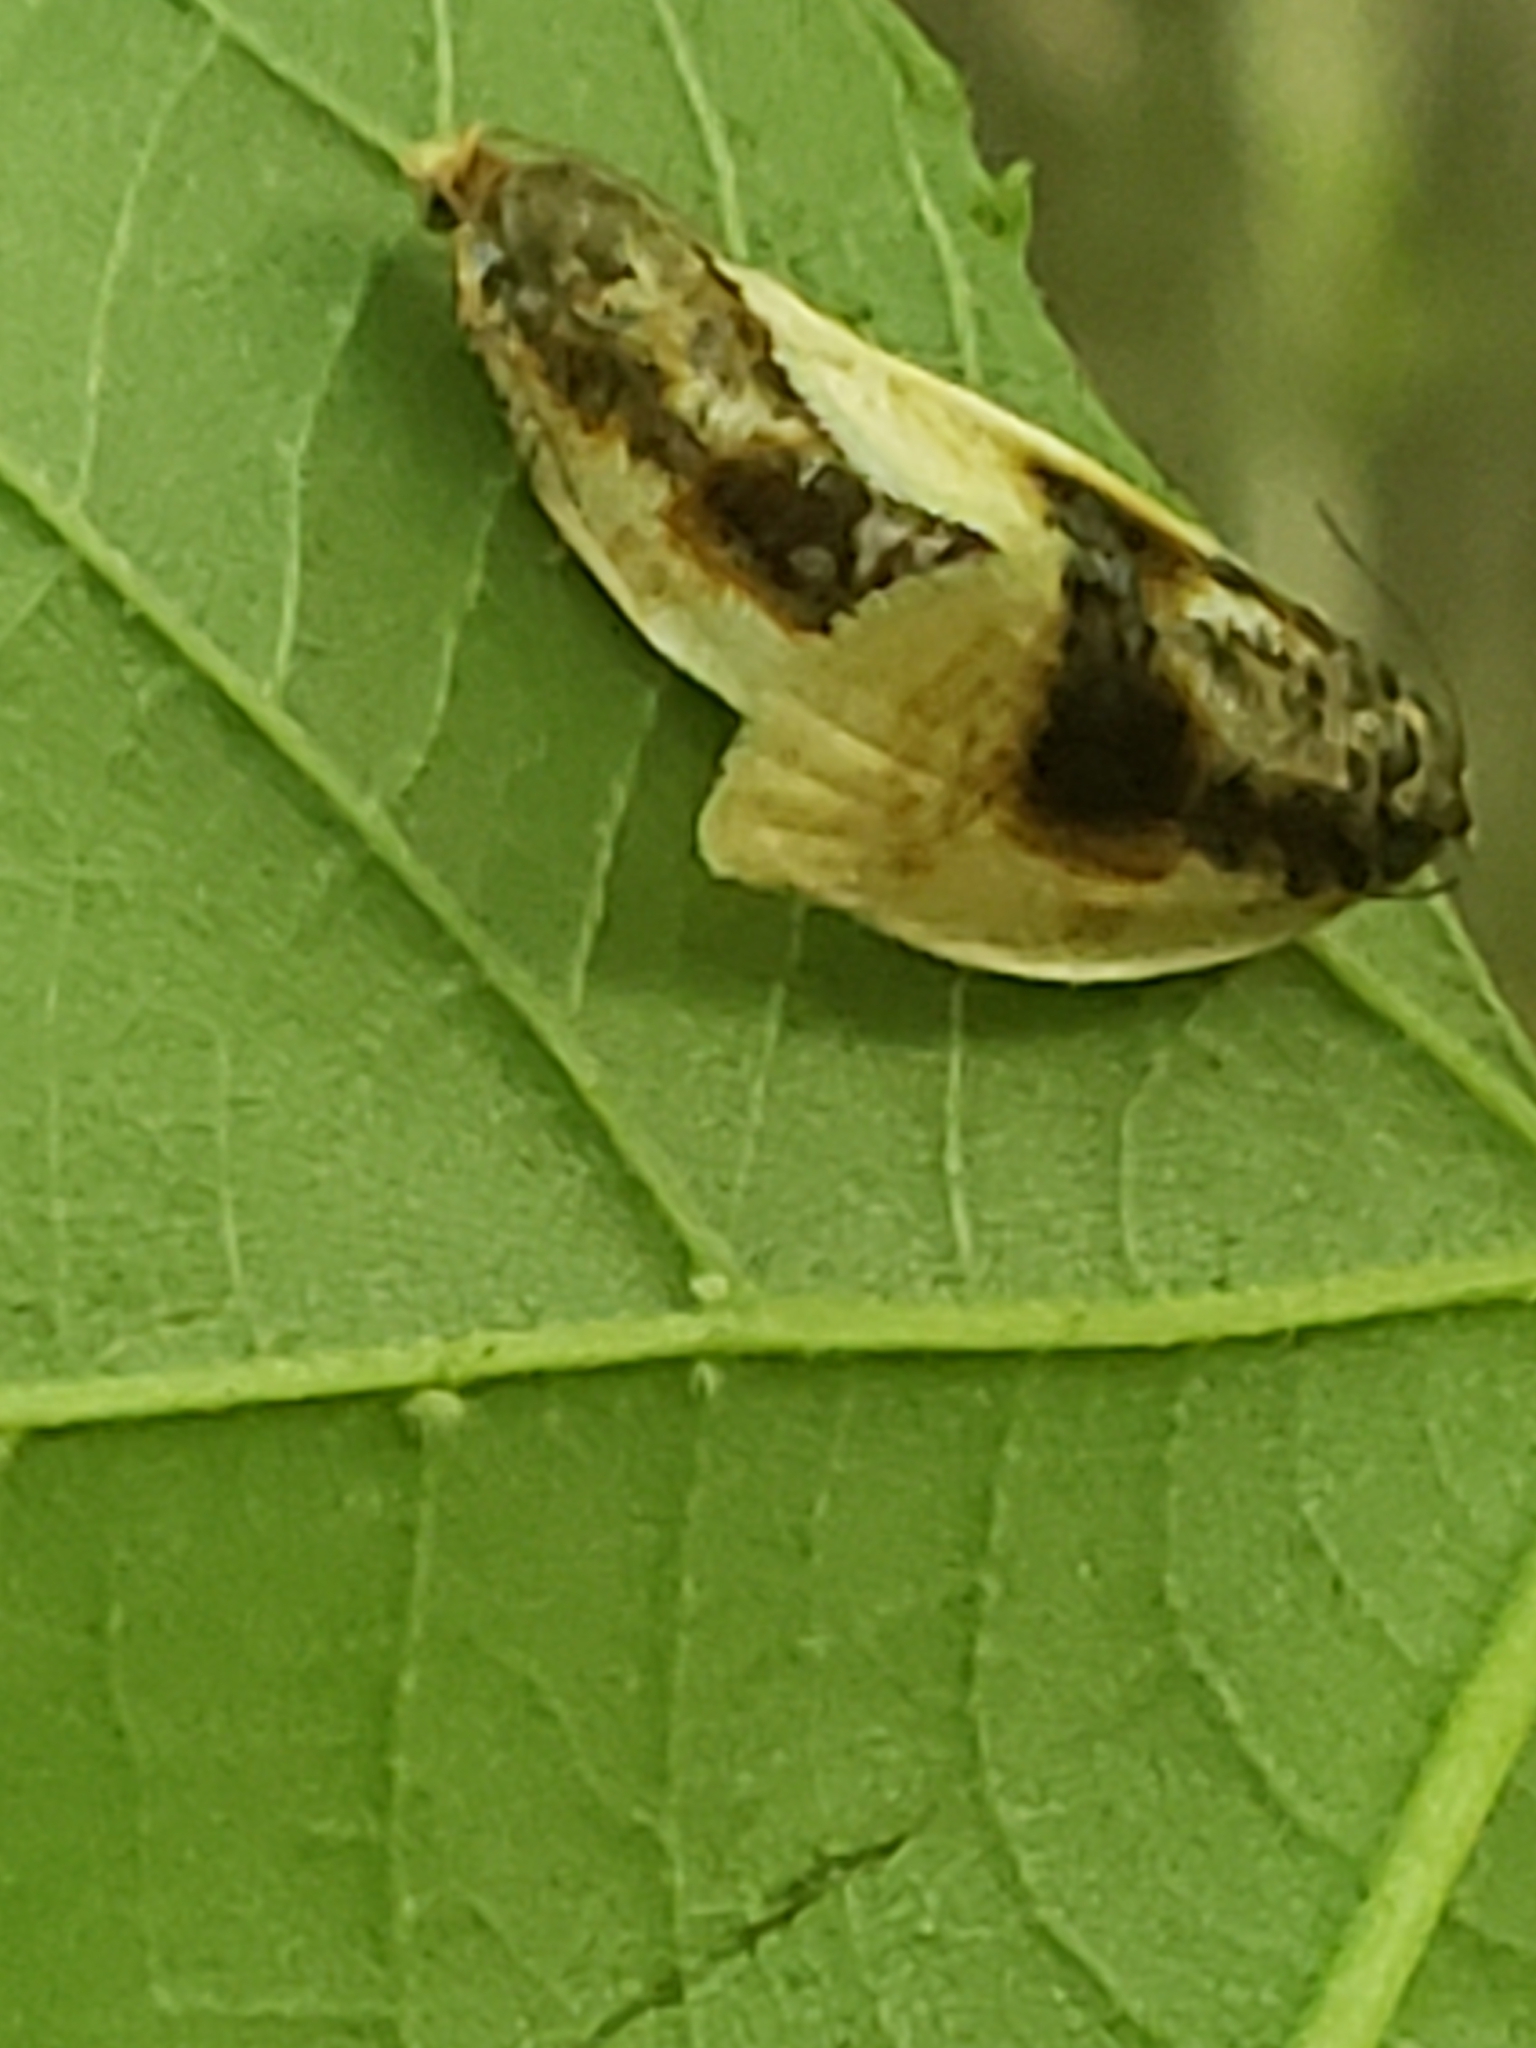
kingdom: Animalia
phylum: Arthropoda
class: Insecta
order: Lepidoptera
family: Tortricidae
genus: Clepsis
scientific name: Clepsis melaleucanus
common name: American apple tortrix
